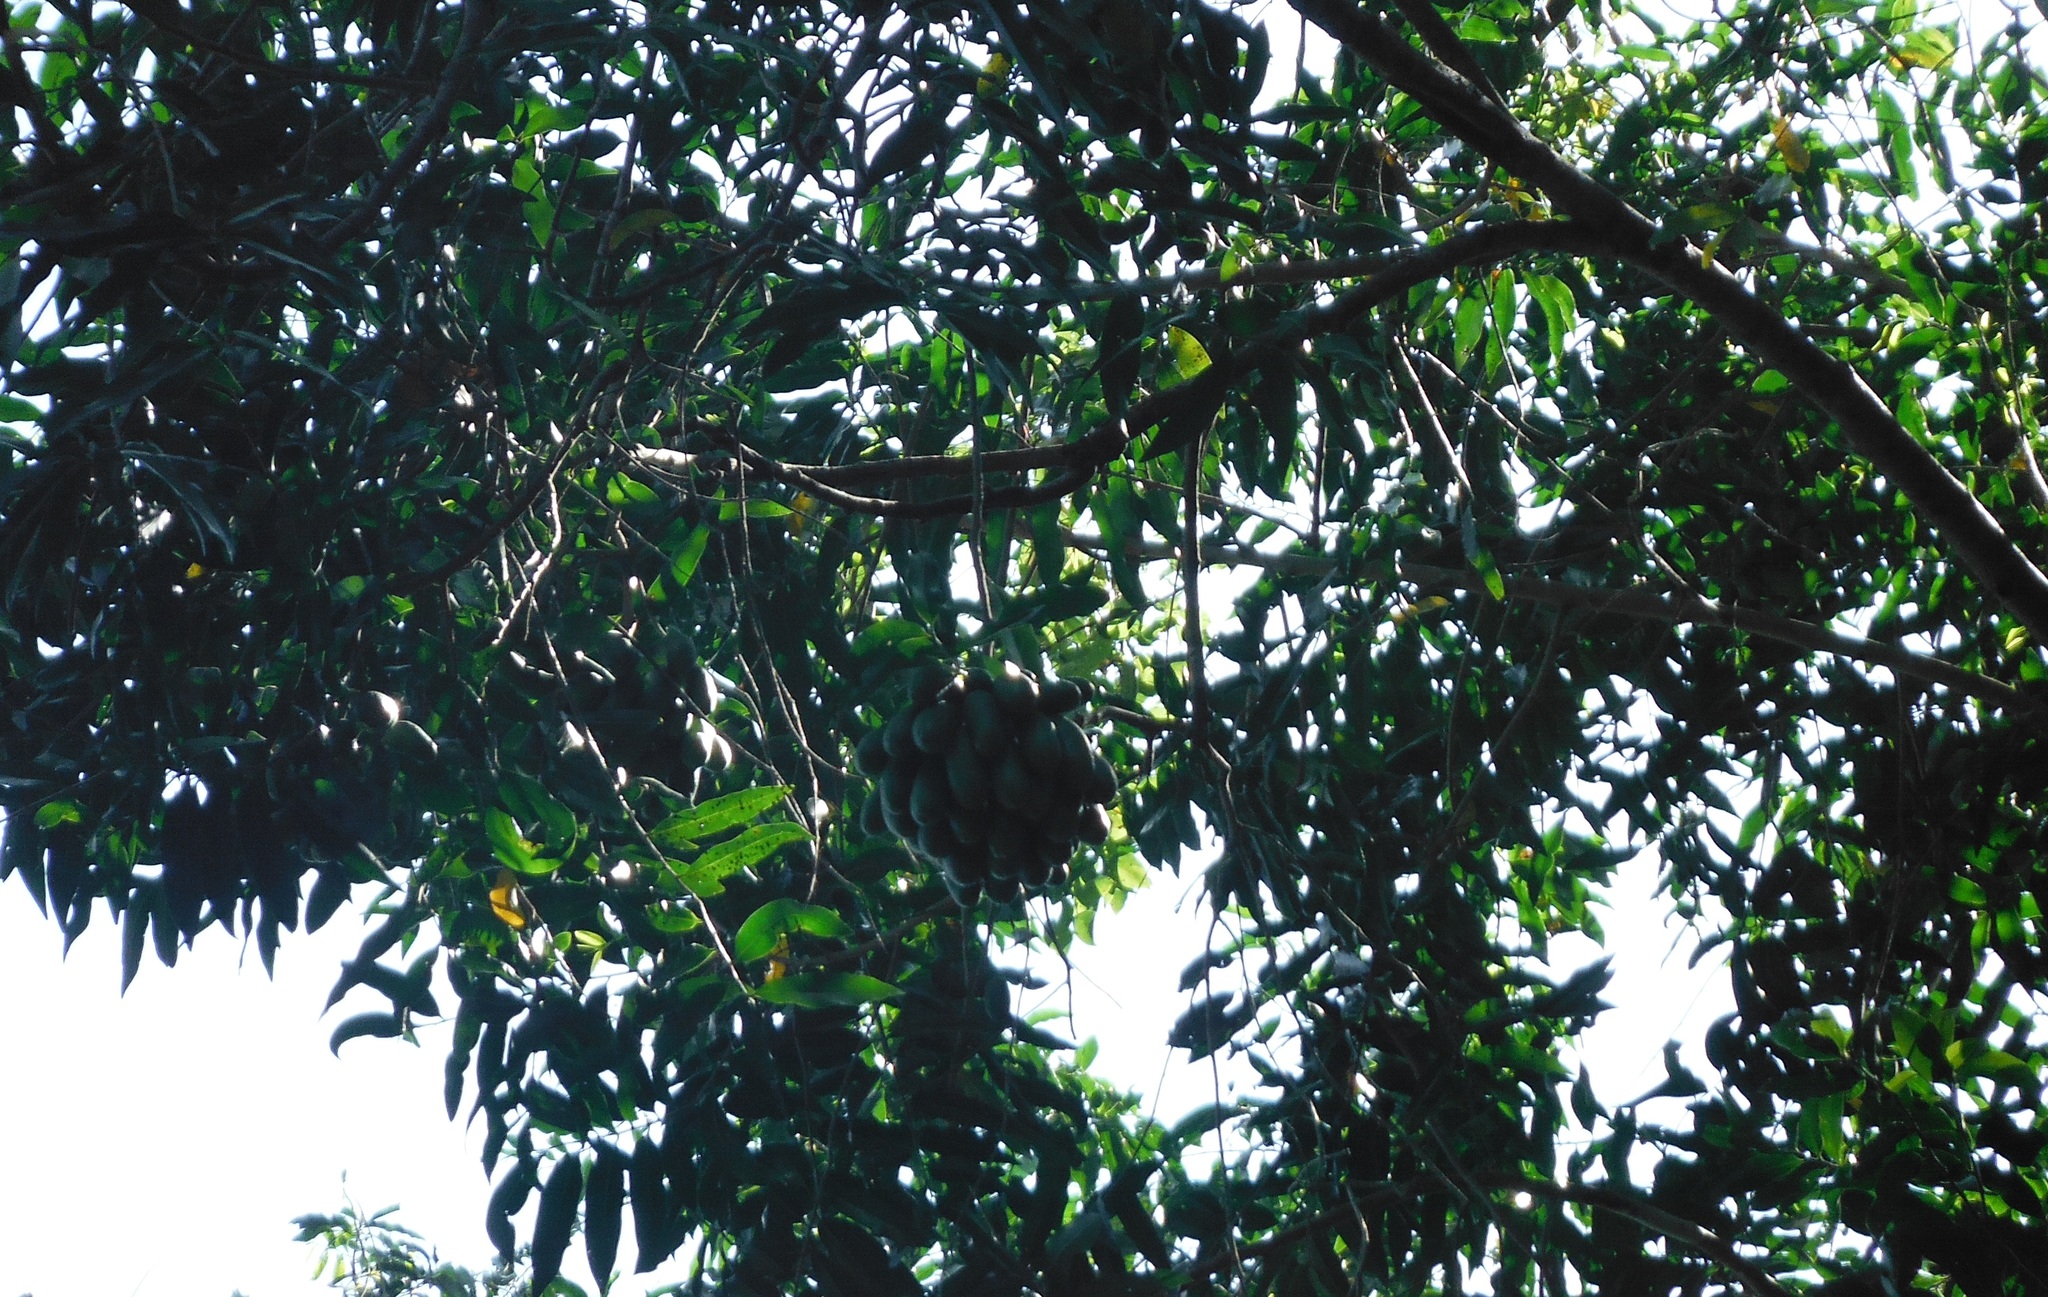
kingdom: Plantae
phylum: Tracheophyta
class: Magnoliopsida
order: Magnoliales
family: Annonaceae
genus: Cymbopetalum
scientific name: Cymbopetalum hintonii
